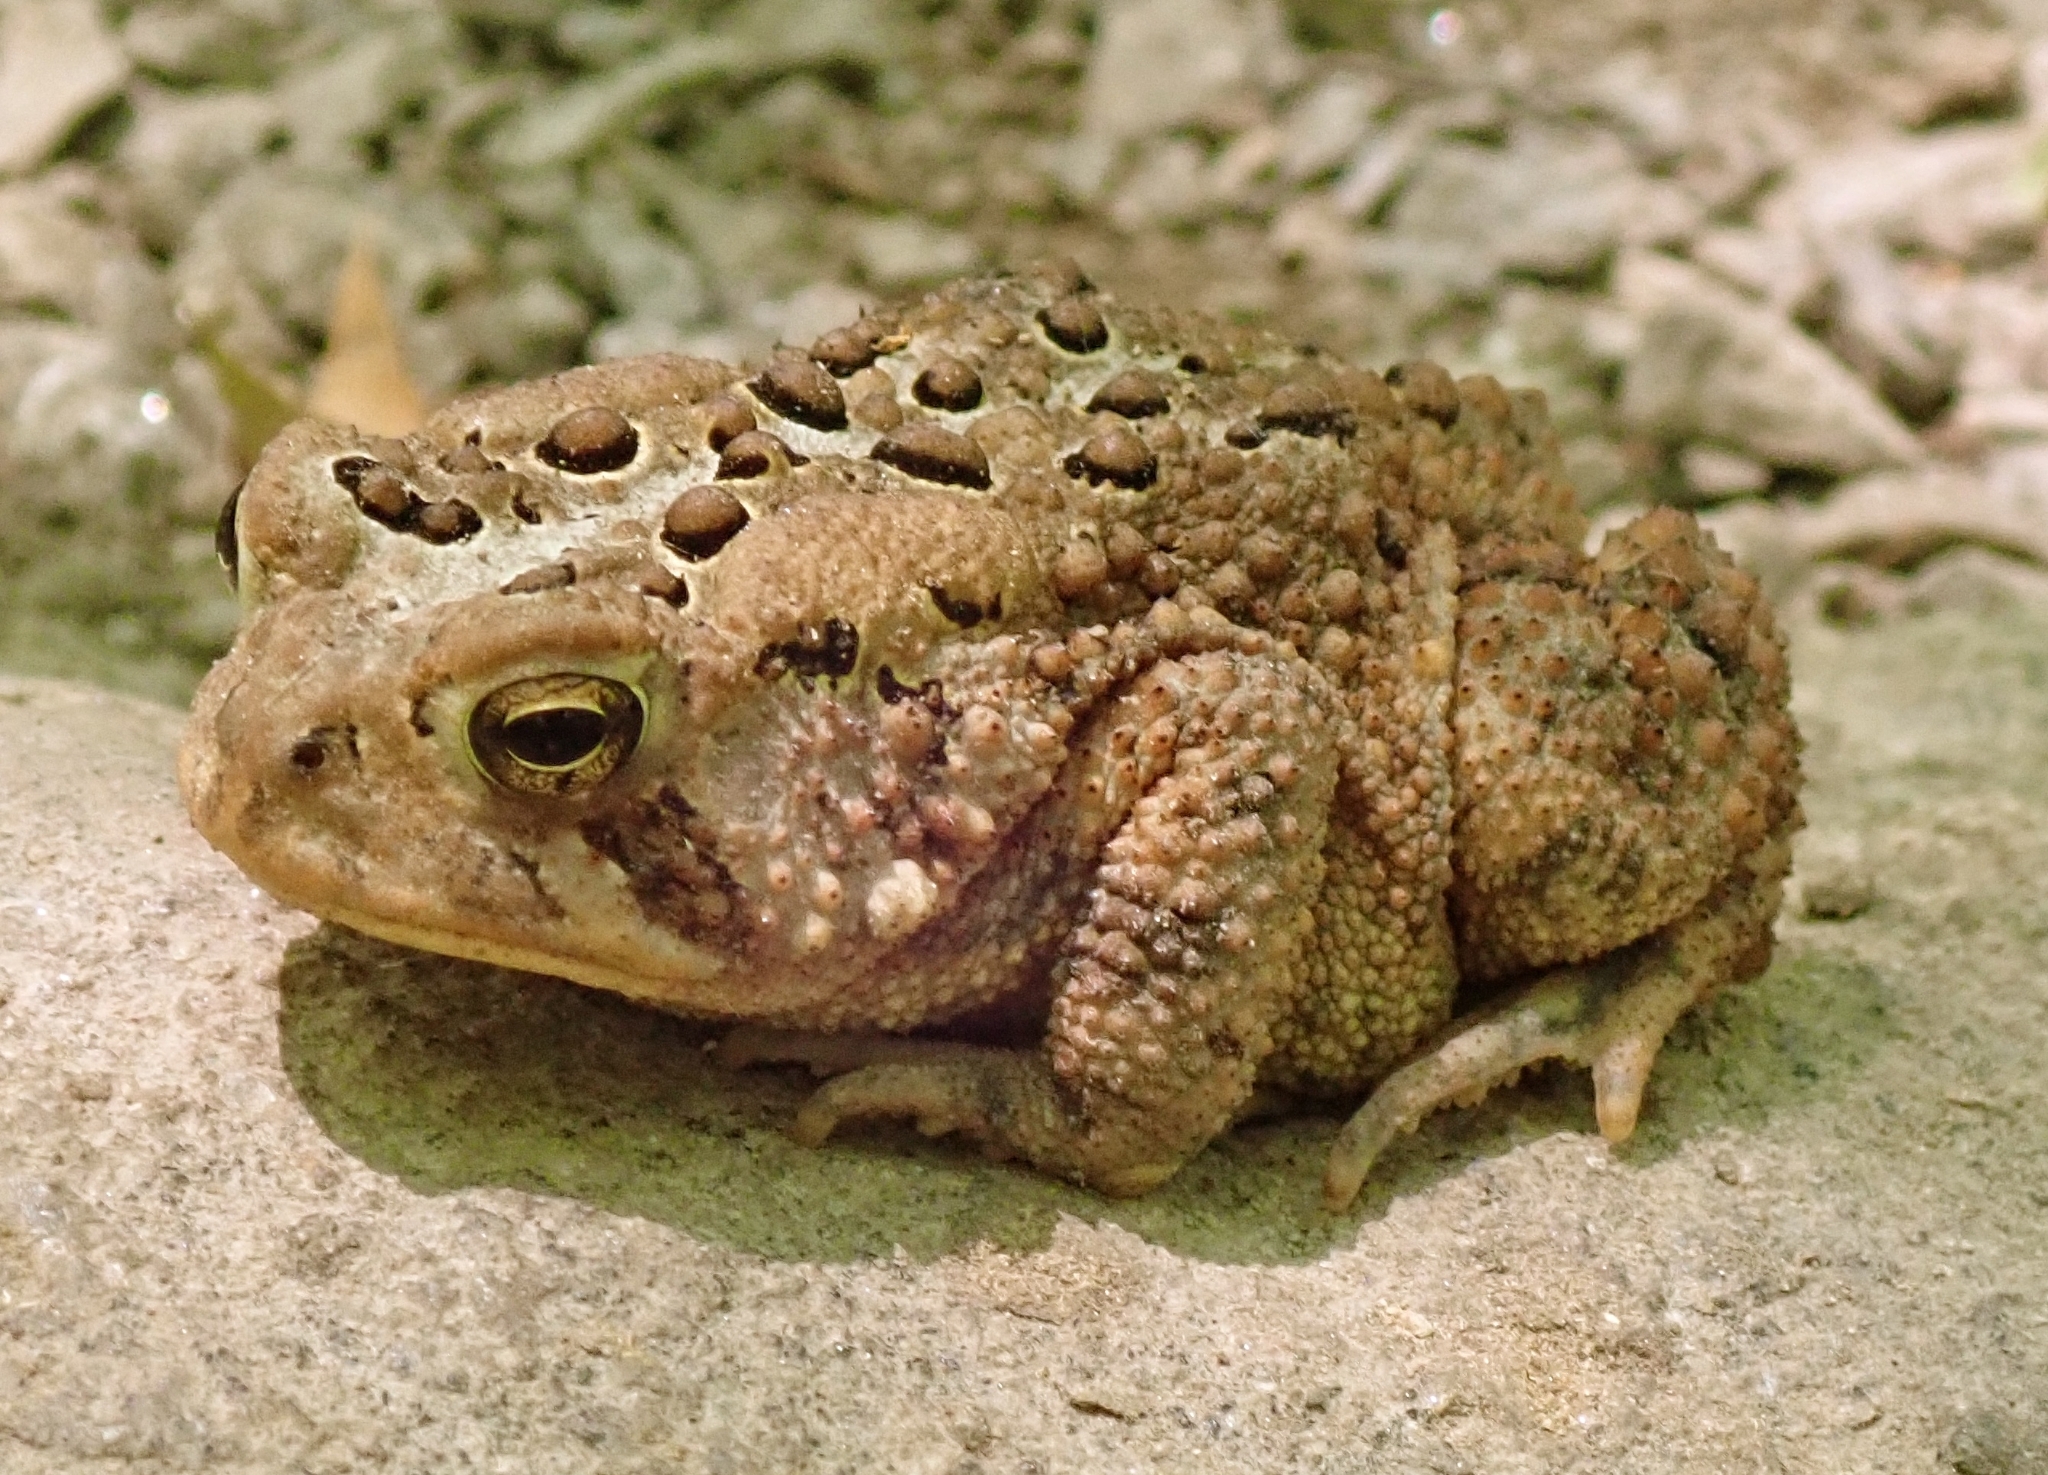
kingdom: Animalia
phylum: Chordata
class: Amphibia
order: Anura
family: Bufonidae
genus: Anaxyrus
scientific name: Anaxyrus americanus
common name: American toad
